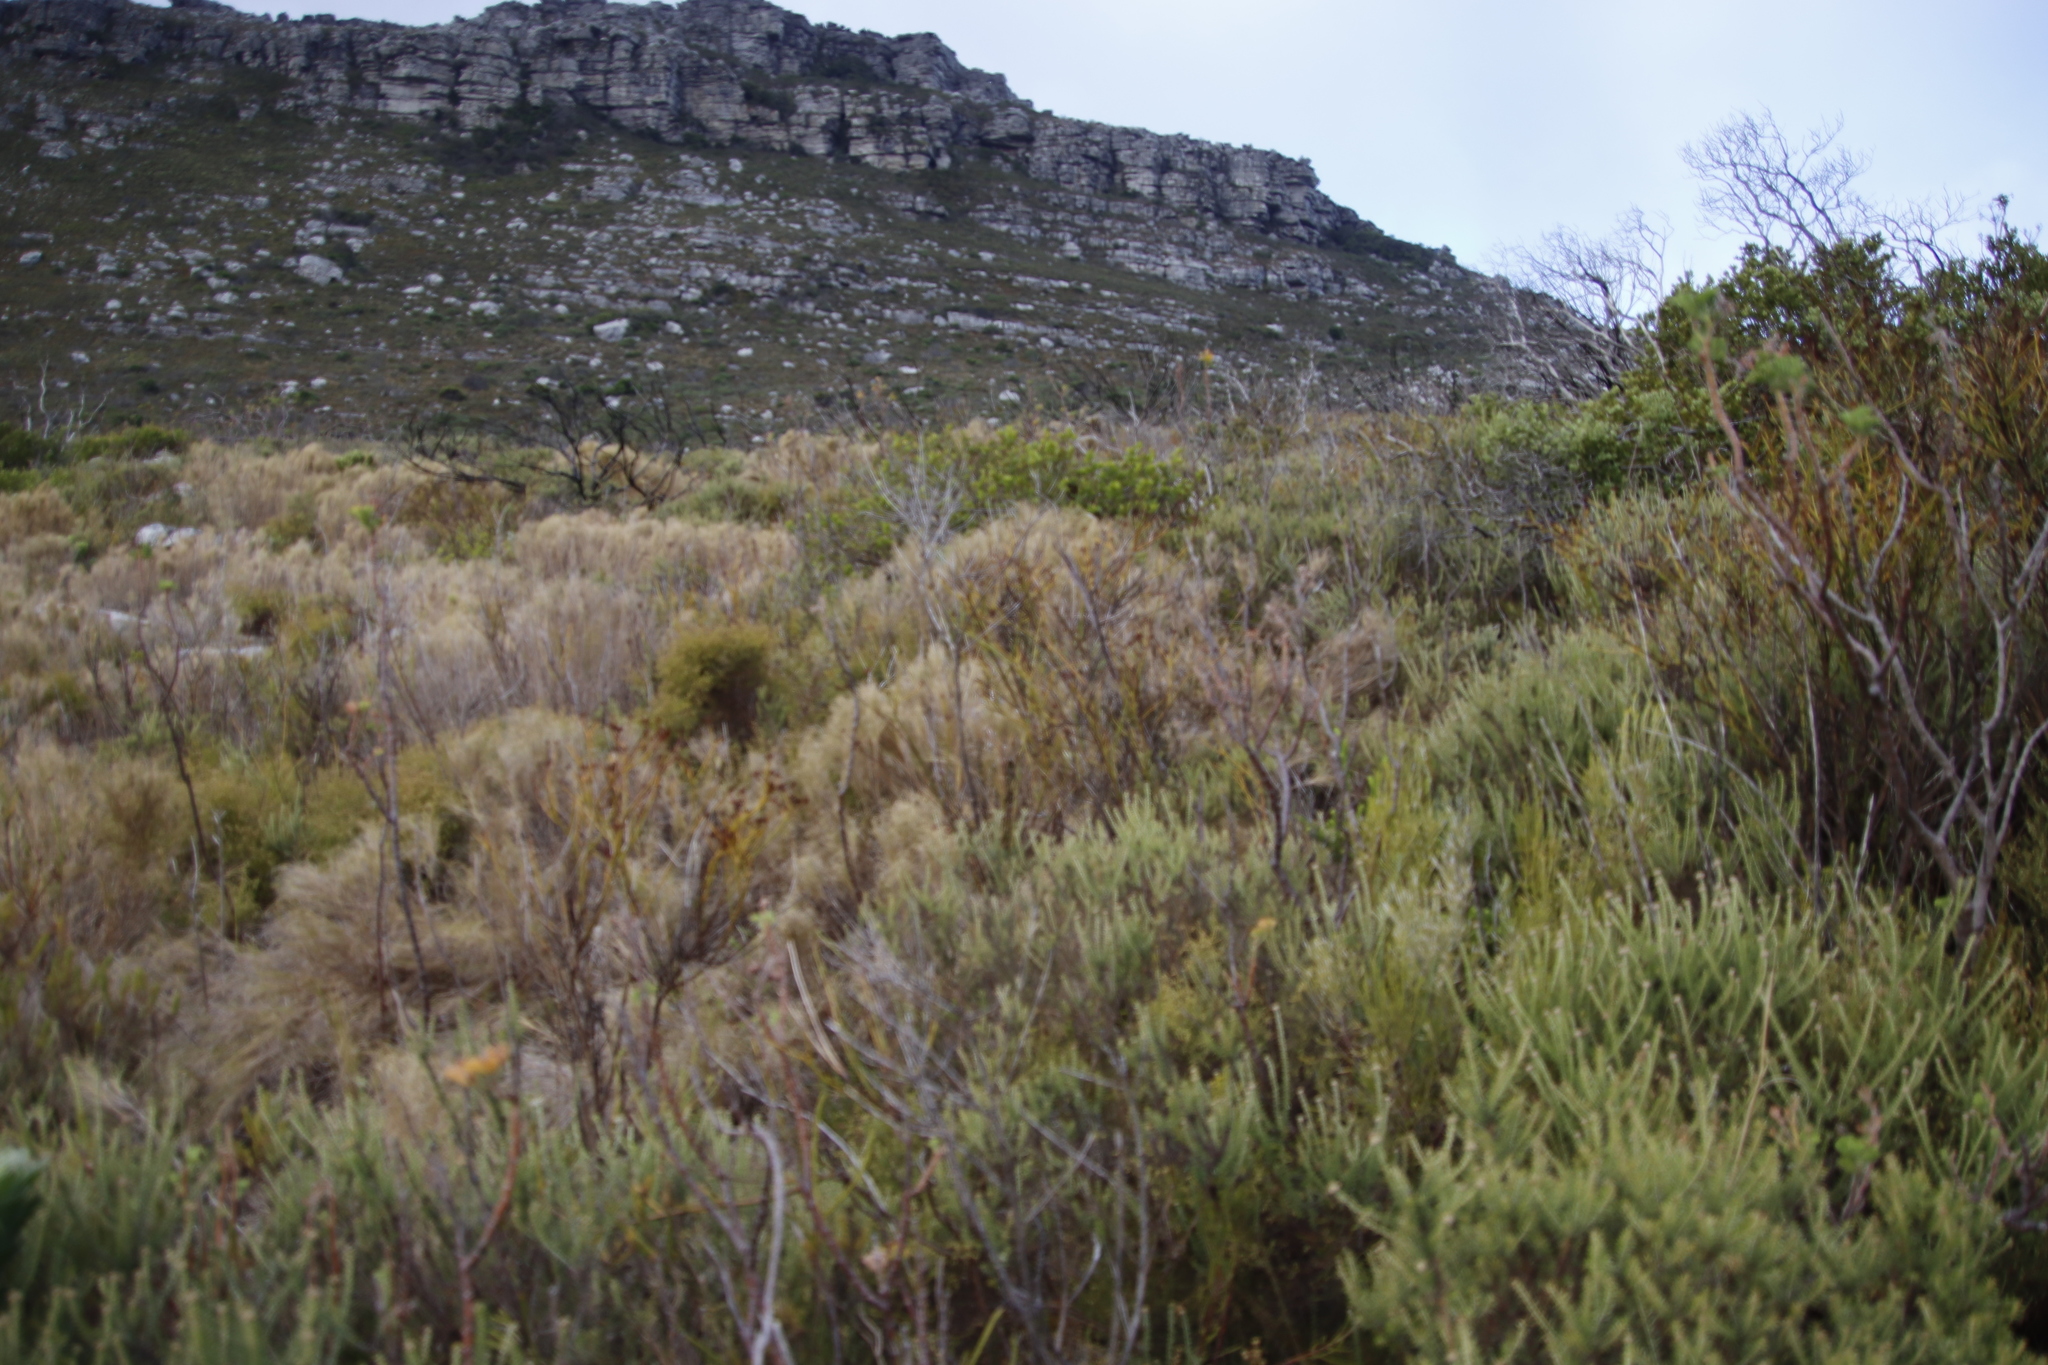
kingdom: Plantae
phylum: Tracheophyta
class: Magnoliopsida
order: Santalales
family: Thesiaceae
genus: Thesium
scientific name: Thesium strictum
